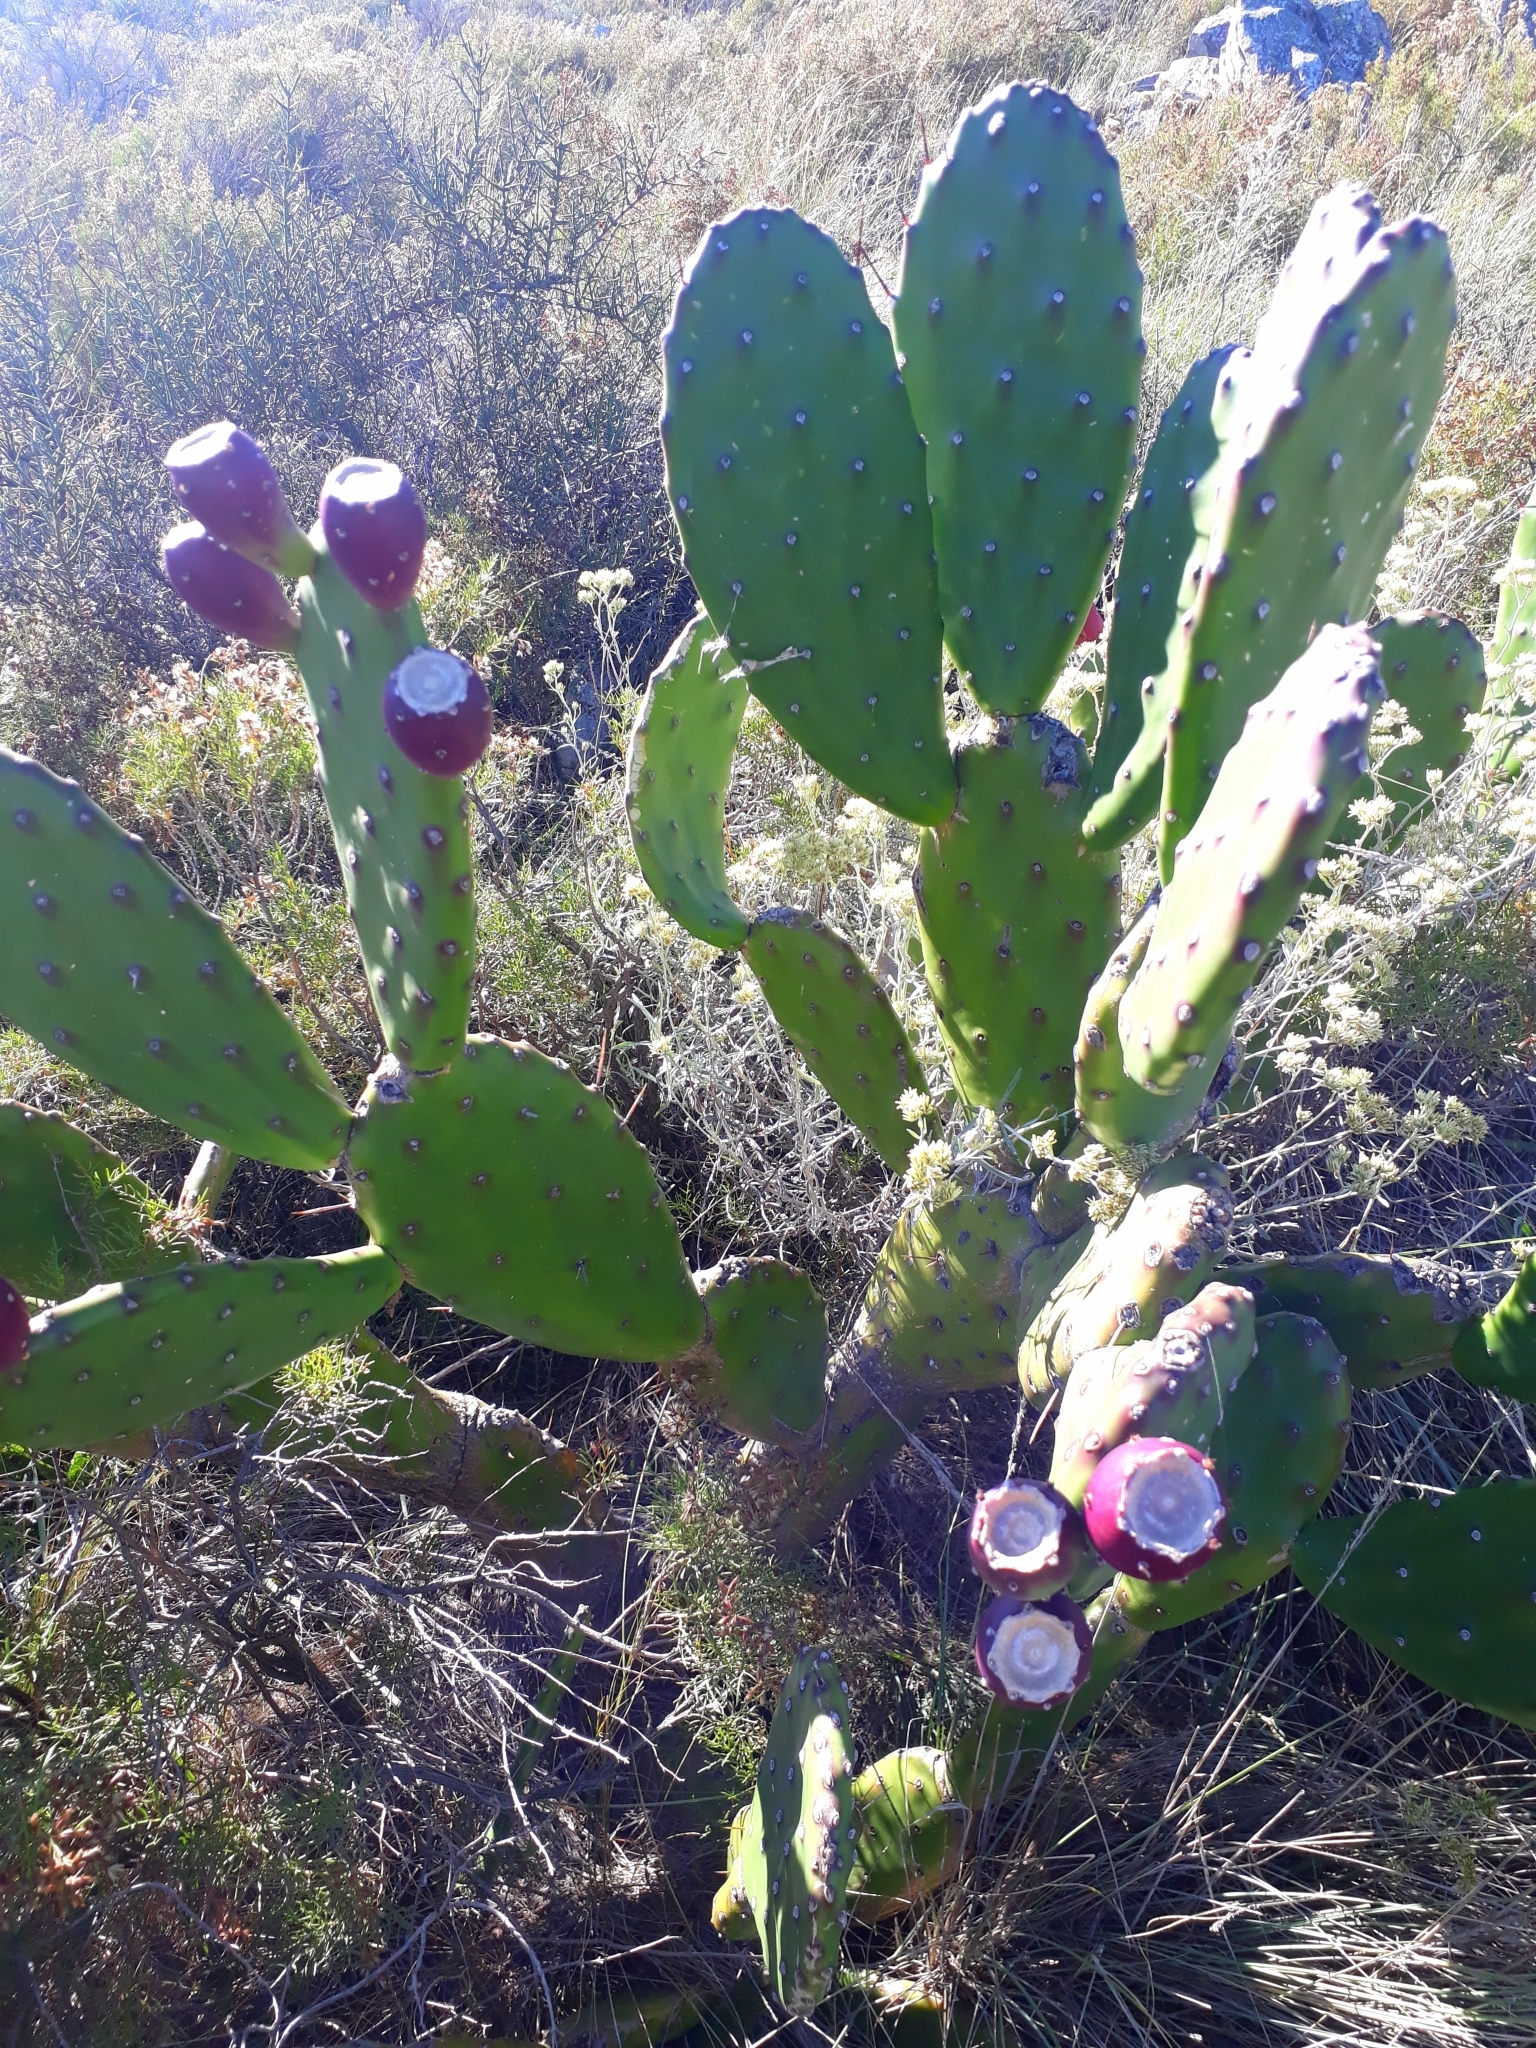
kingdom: Plantae
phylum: Tracheophyta
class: Magnoliopsida
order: Caryophyllales
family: Cactaceae
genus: Opuntia
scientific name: Opuntia elata
